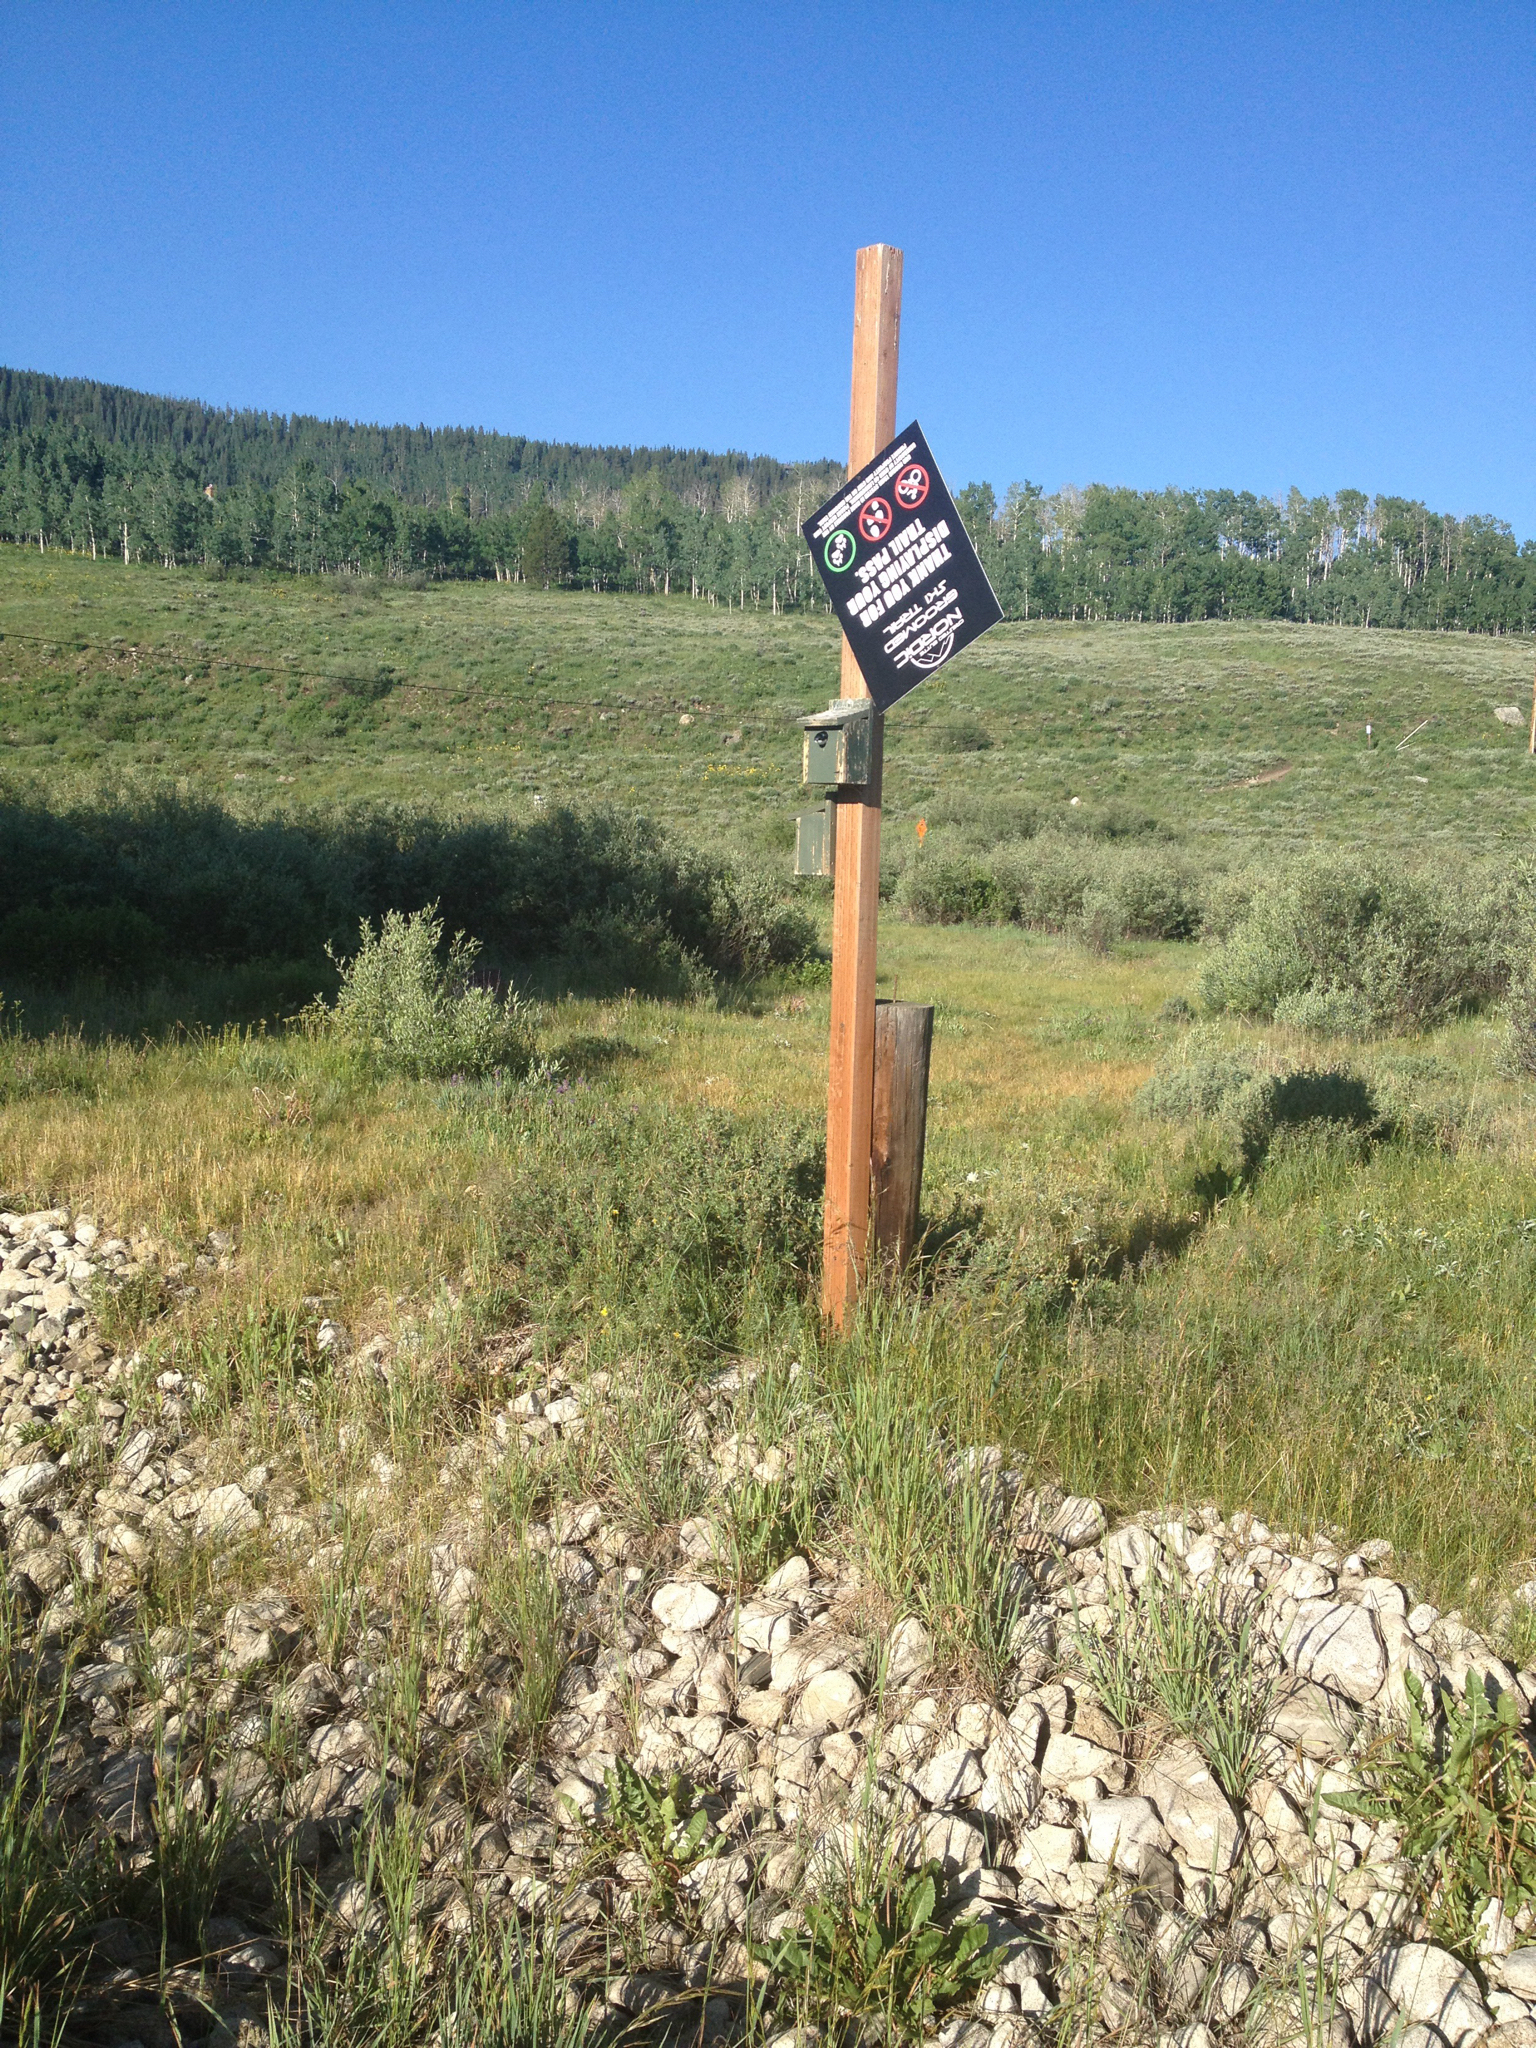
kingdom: Animalia
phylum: Chordata
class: Aves
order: Passeriformes
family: Hirundinidae
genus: Tachycineta
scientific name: Tachycineta bicolor
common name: Tree swallow
